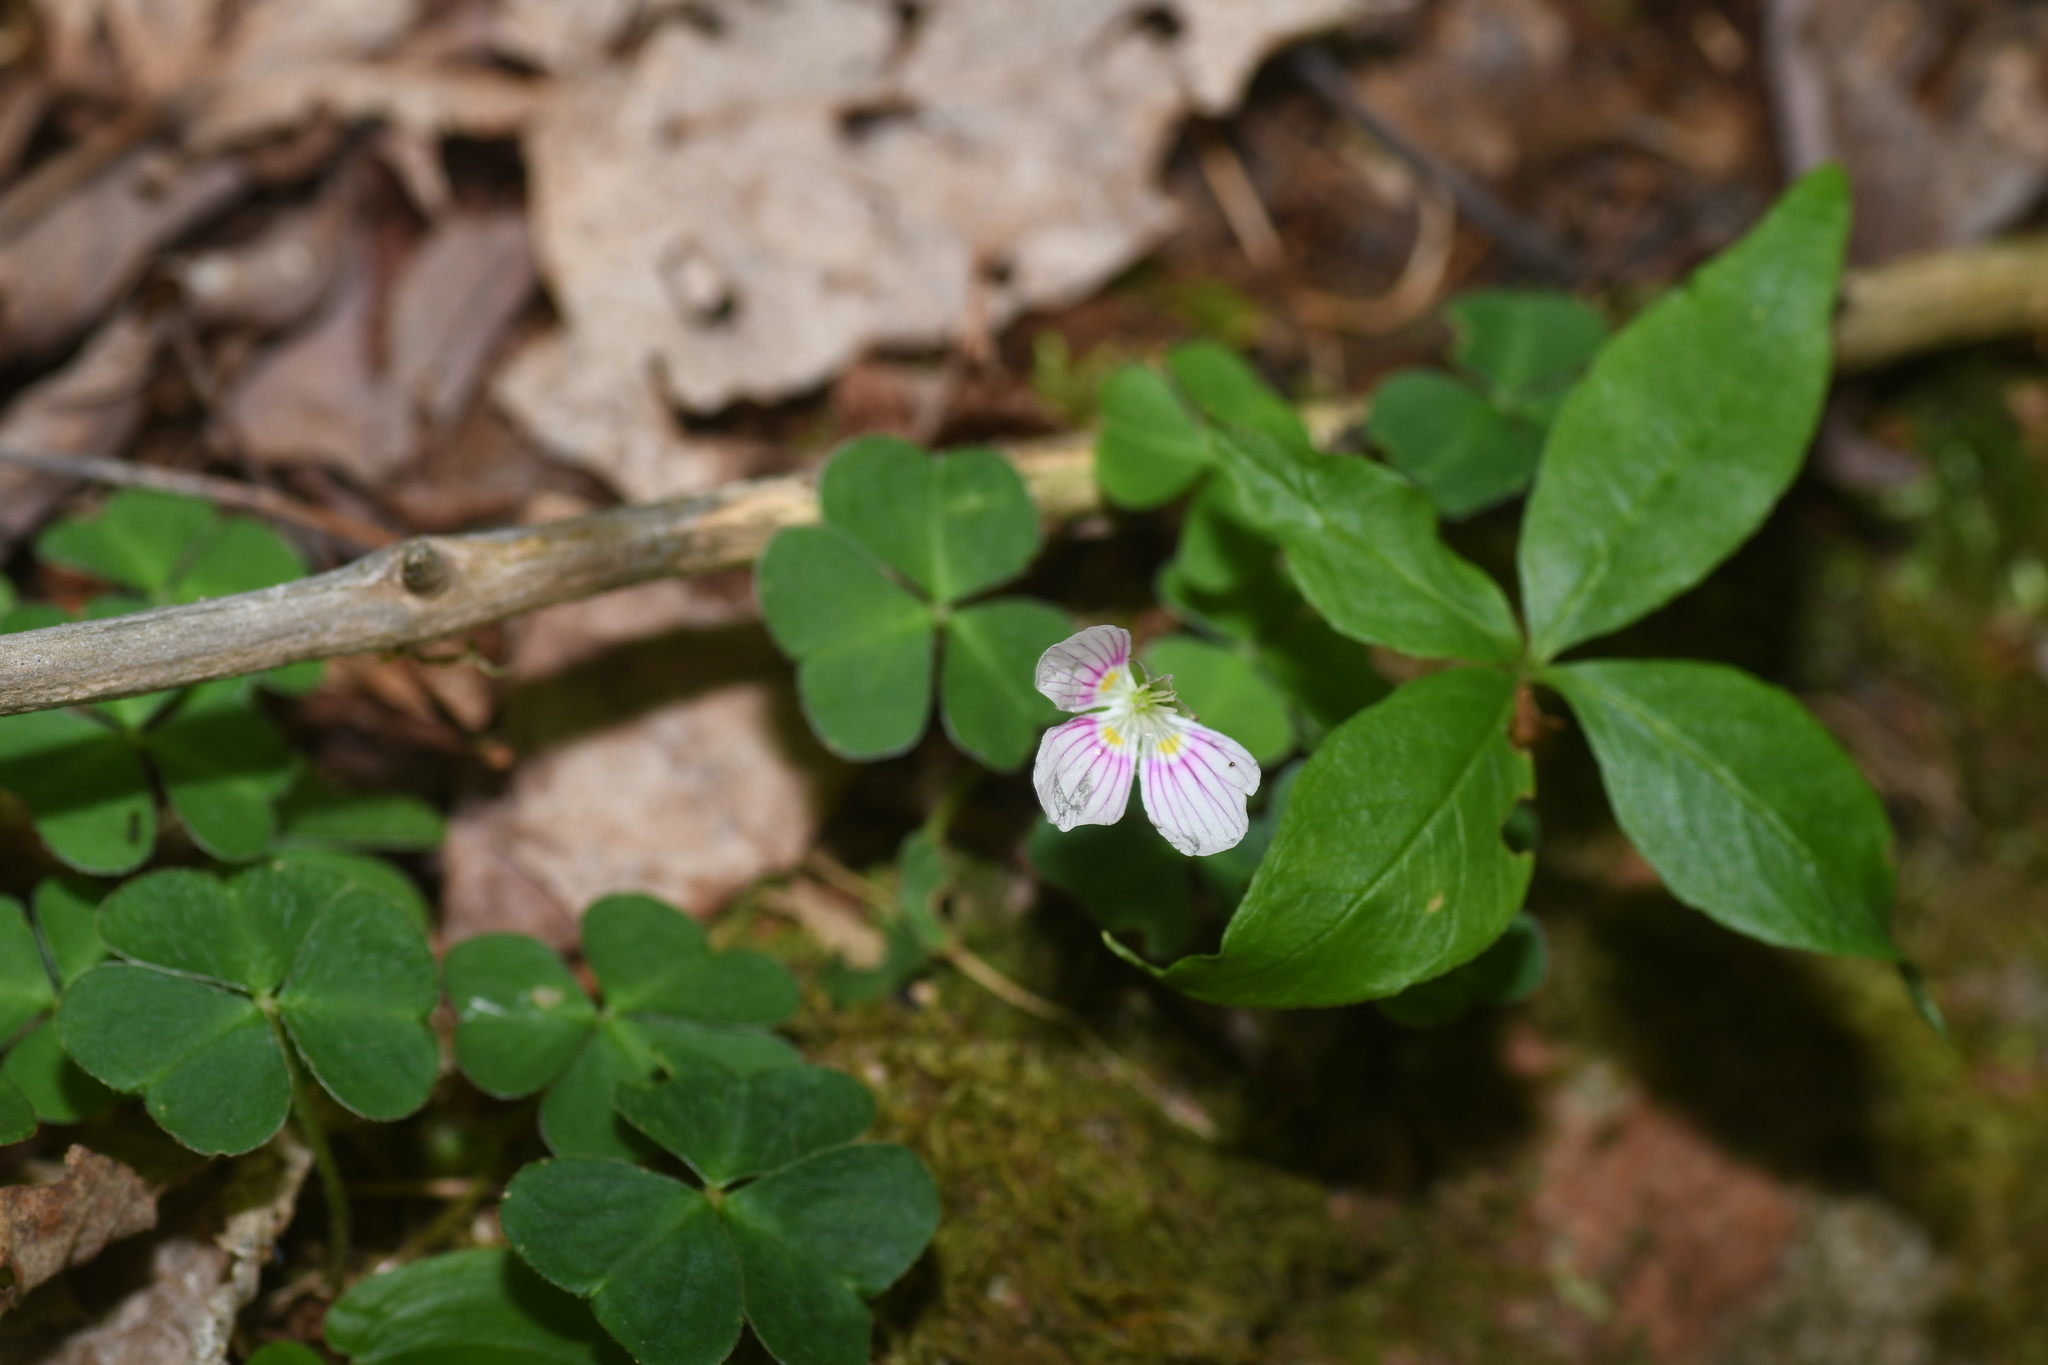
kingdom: Plantae
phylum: Tracheophyta
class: Magnoliopsida
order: Oxalidales
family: Oxalidaceae
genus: Oxalis
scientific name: Oxalis montana
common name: American wood-sorrel
